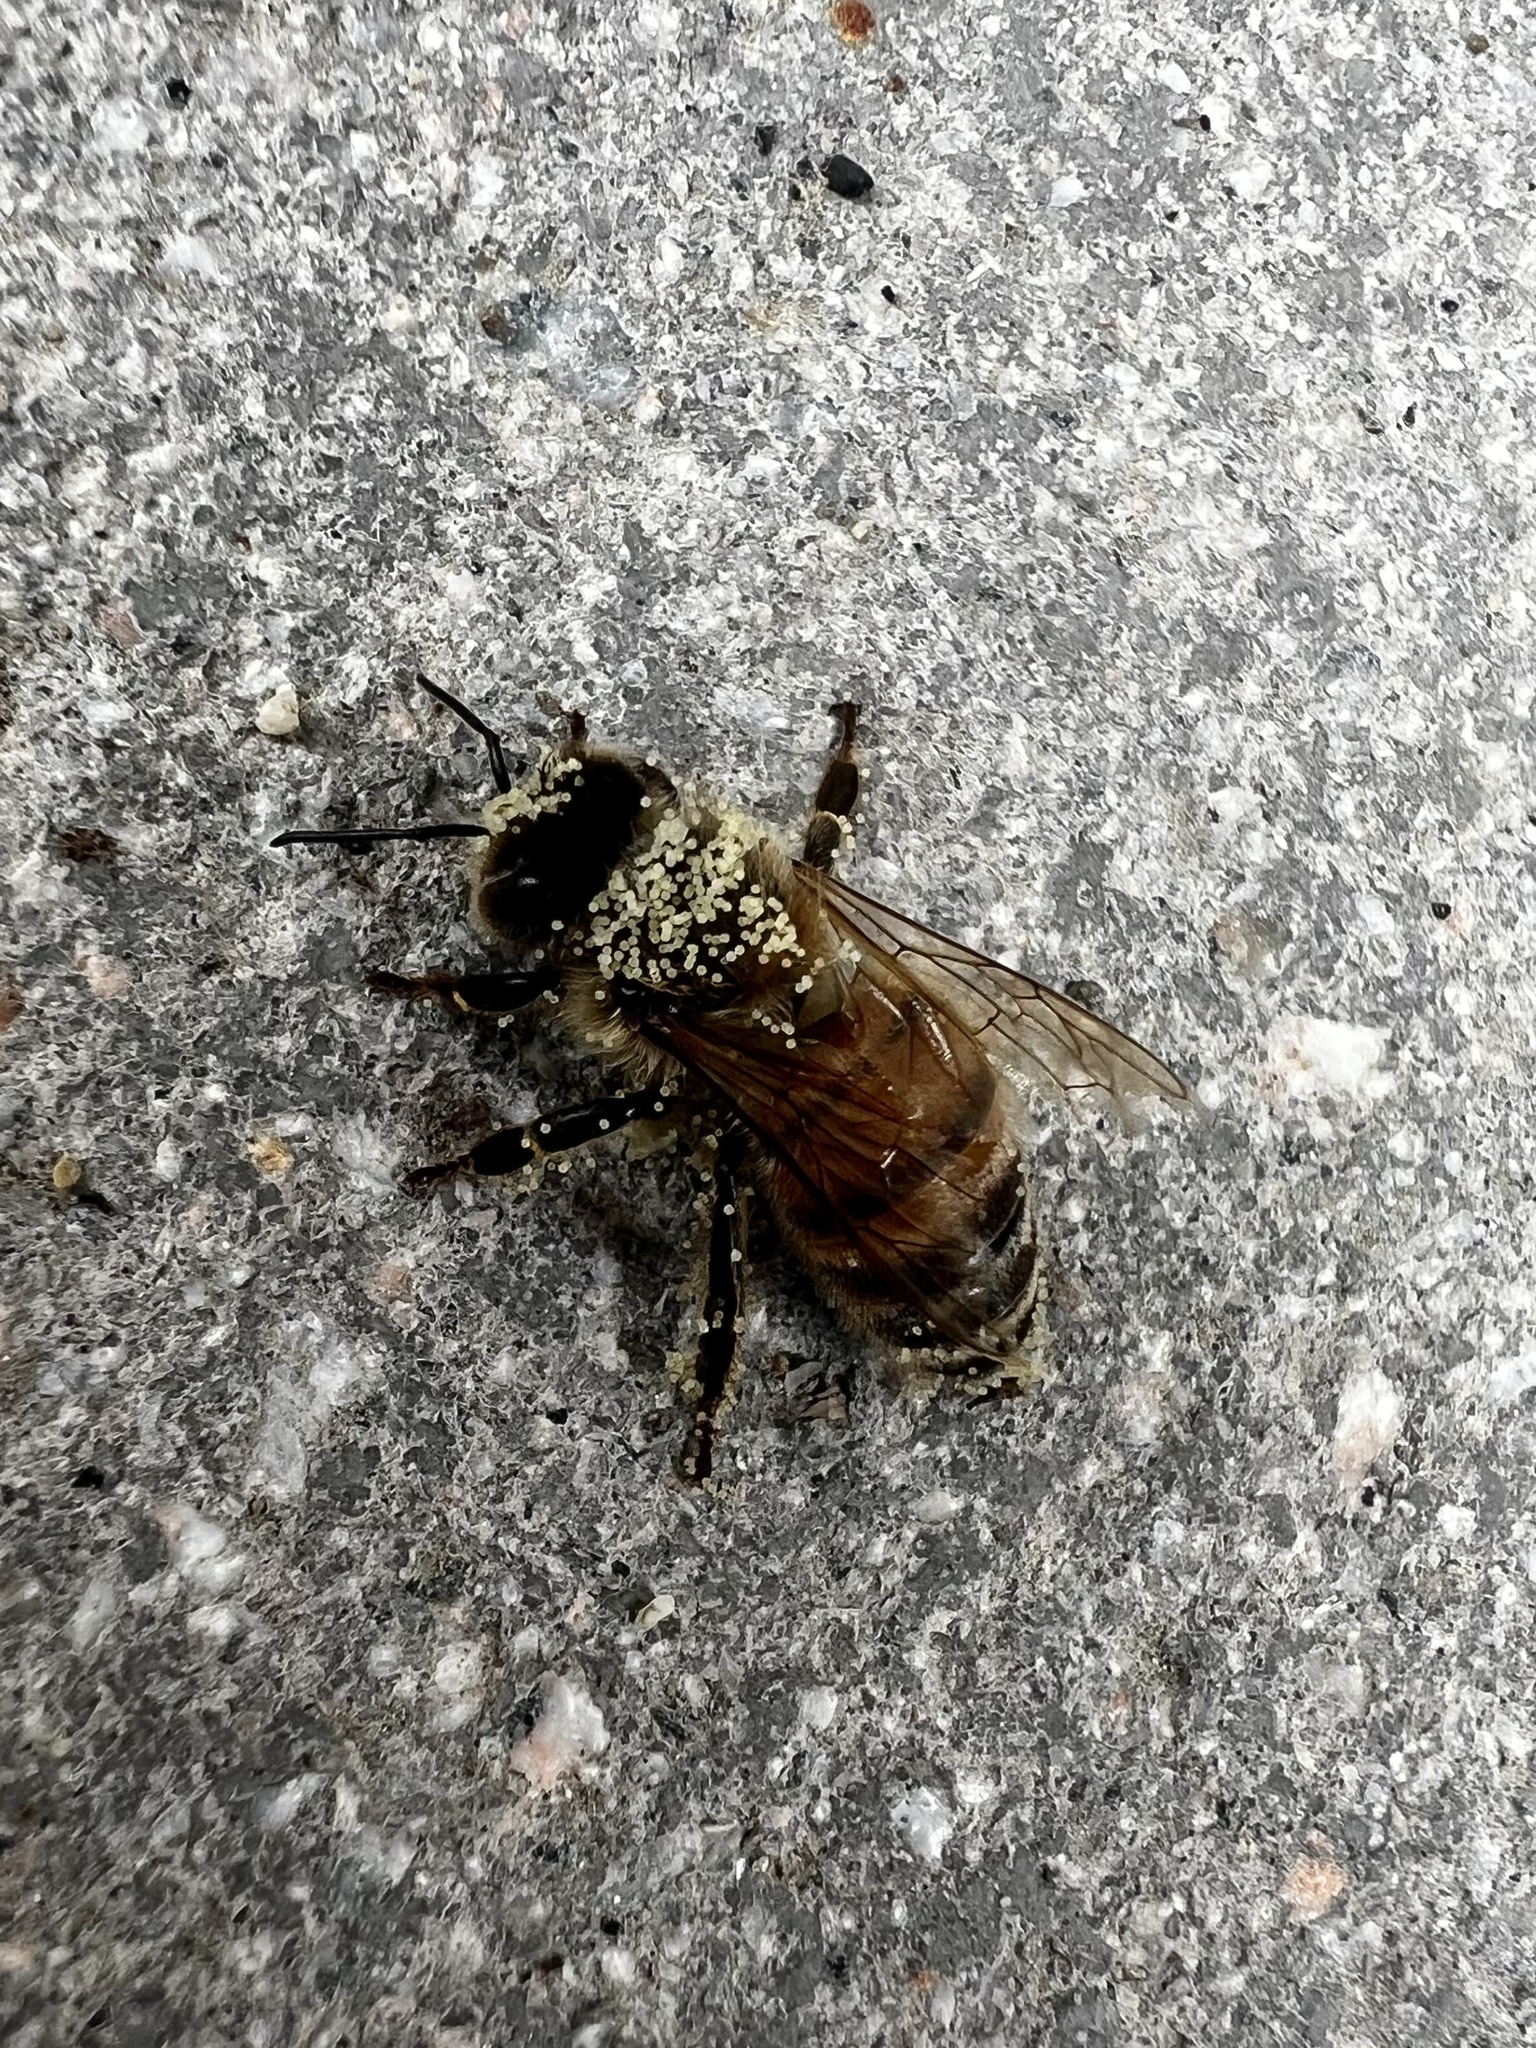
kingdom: Animalia
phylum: Arthropoda
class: Insecta
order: Hymenoptera
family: Apidae
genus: Apis
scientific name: Apis mellifera
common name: Honey bee
